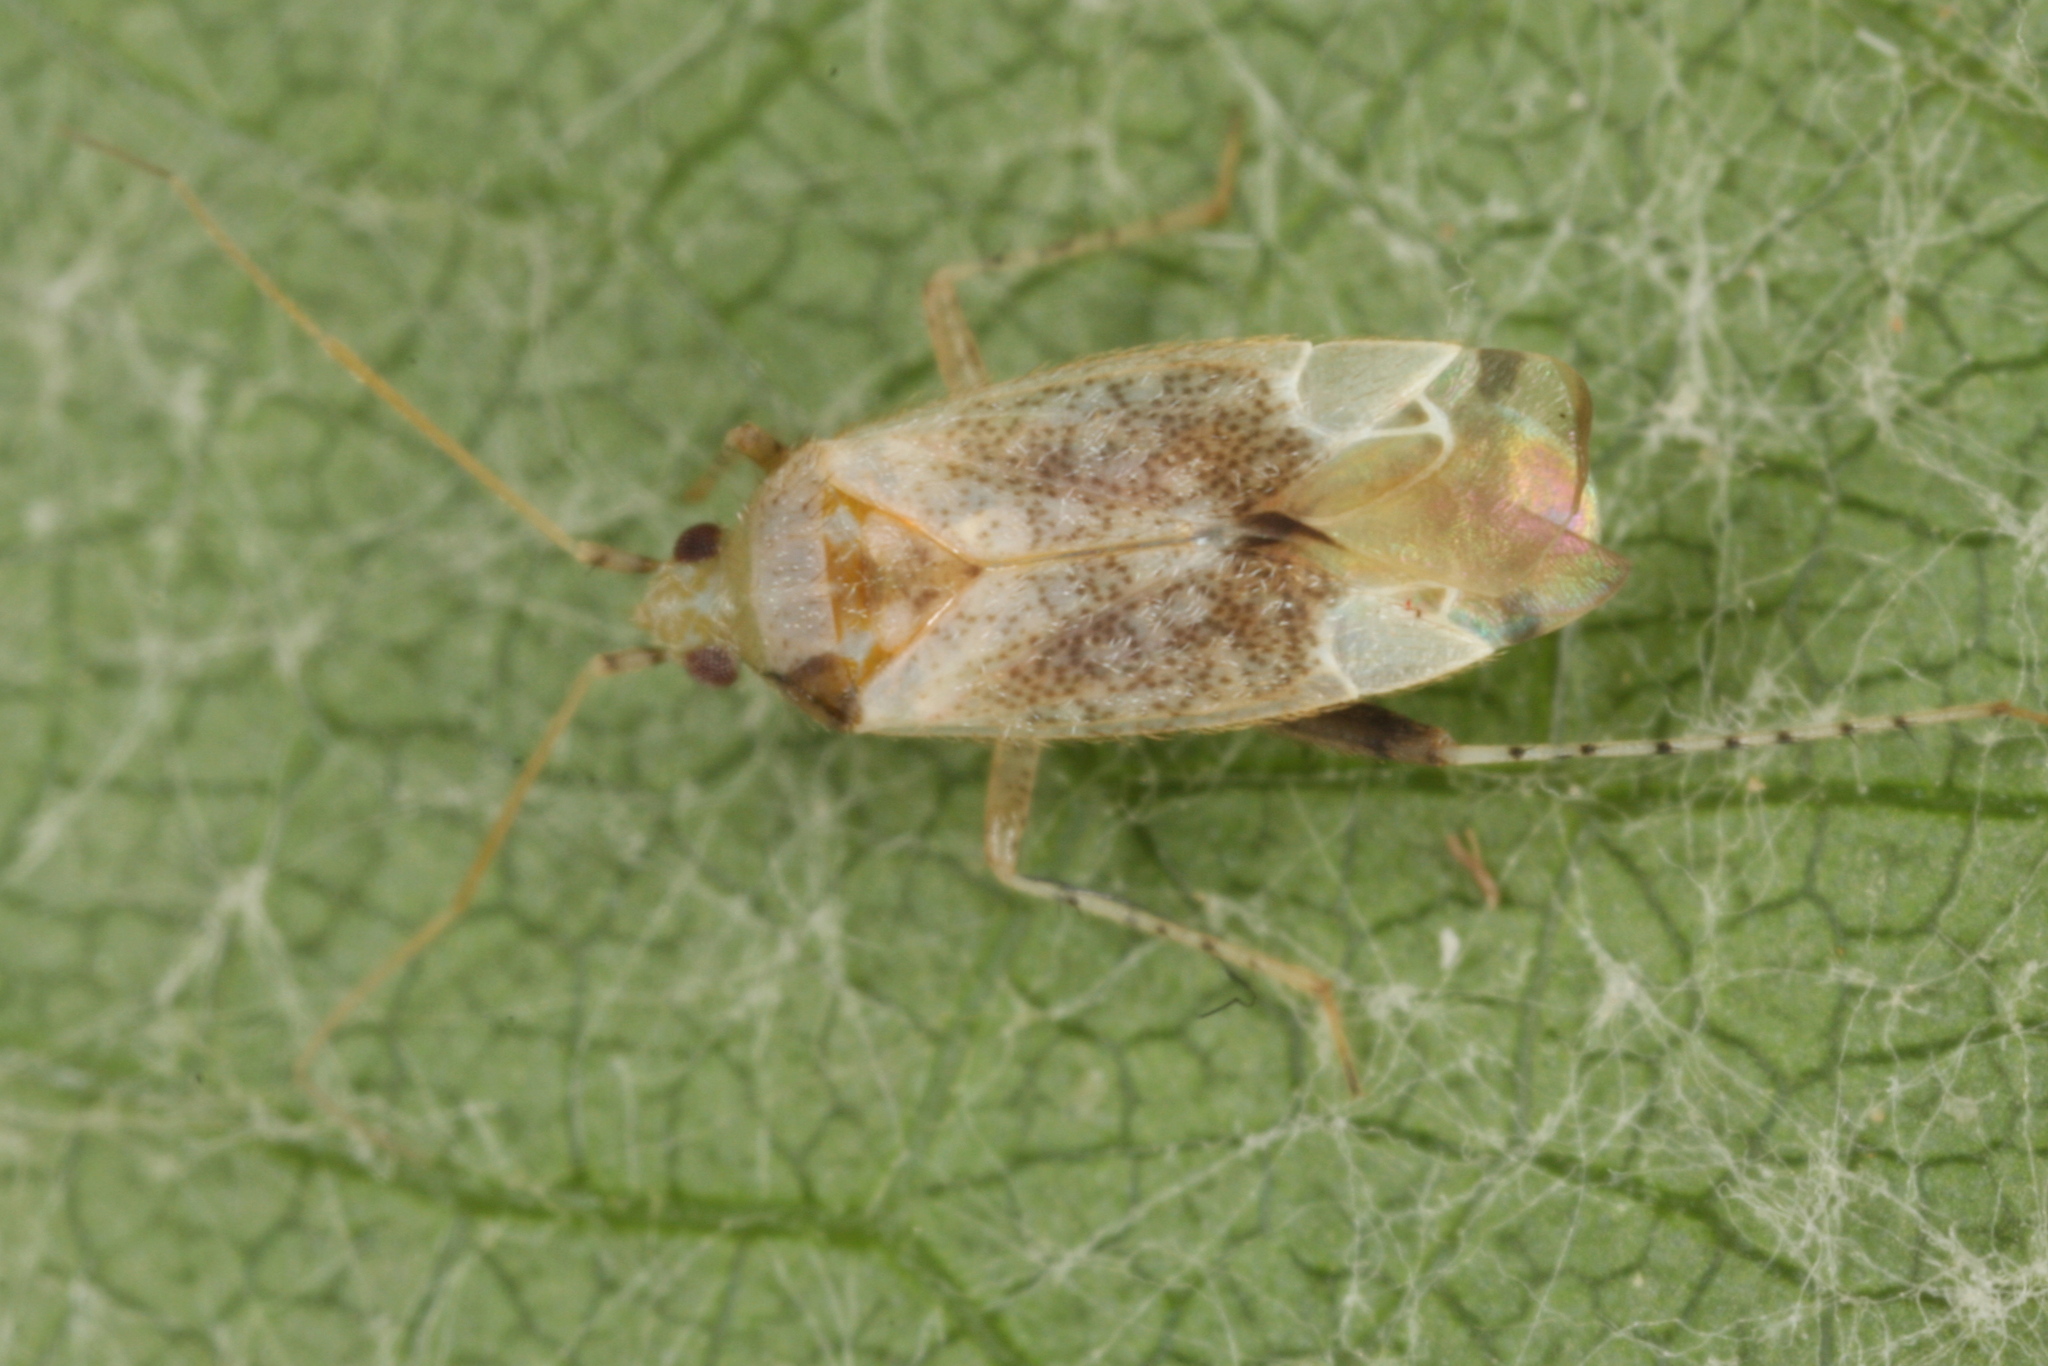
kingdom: Animalia
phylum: Arthropoda
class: Insecta
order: Hemiptera
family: Miridae
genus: Compsidolon
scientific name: Compsidolon salicellum
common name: Plant bug
